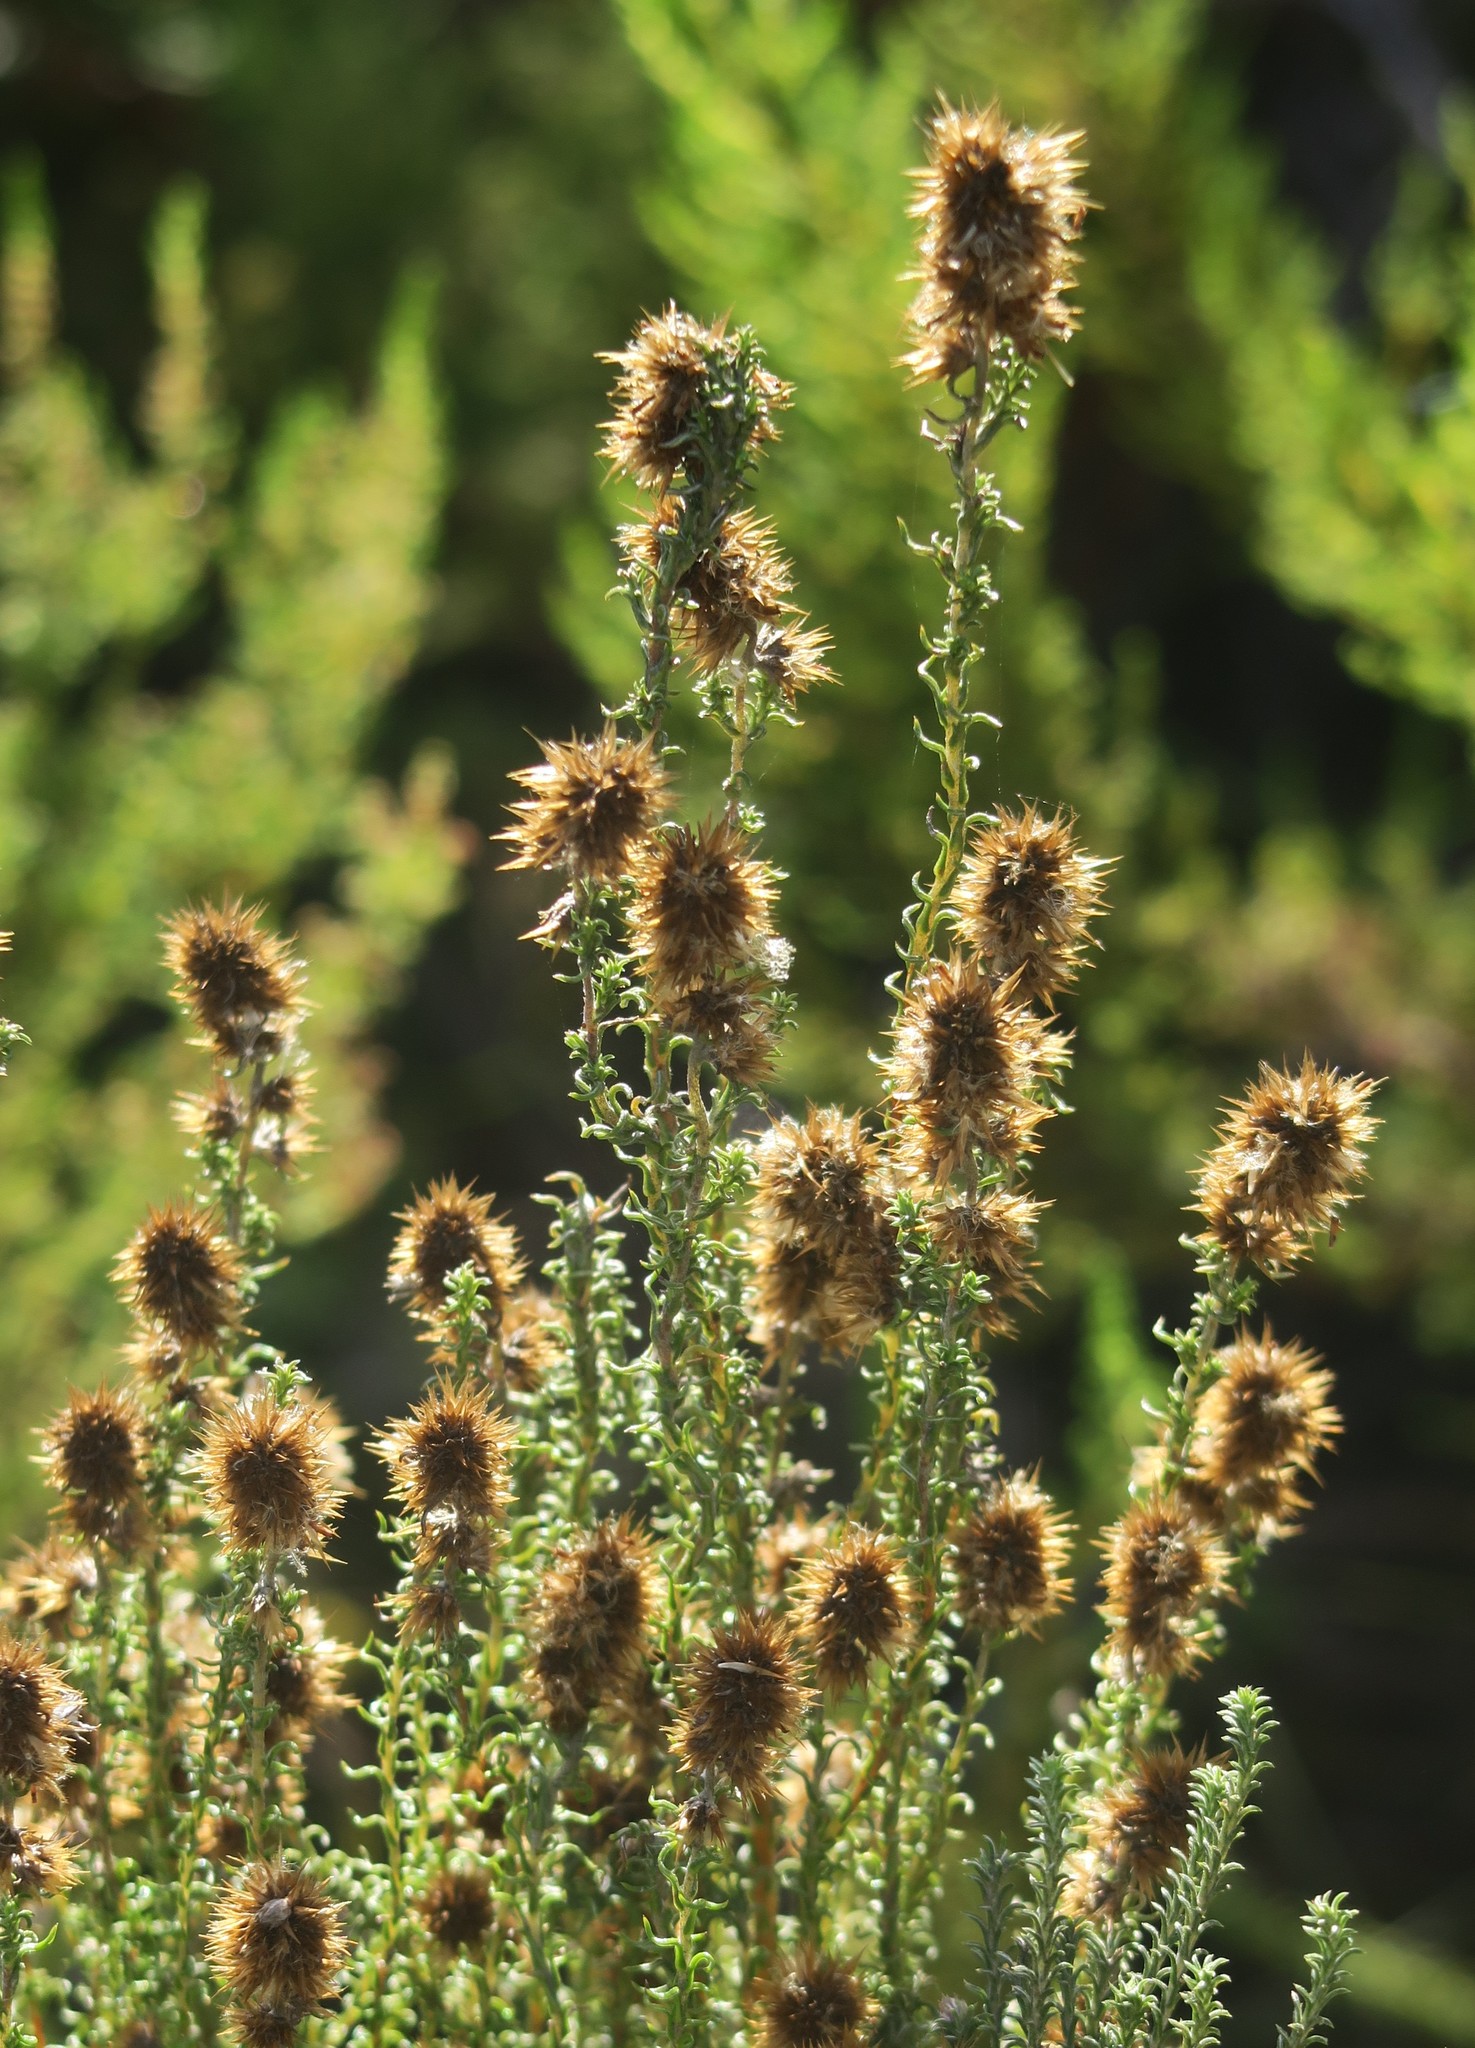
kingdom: Plantae
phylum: Tracheophyta
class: Magnoliopsida
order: Asterales
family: Asteraceae
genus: Seriphium
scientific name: Seriphium cinereum
